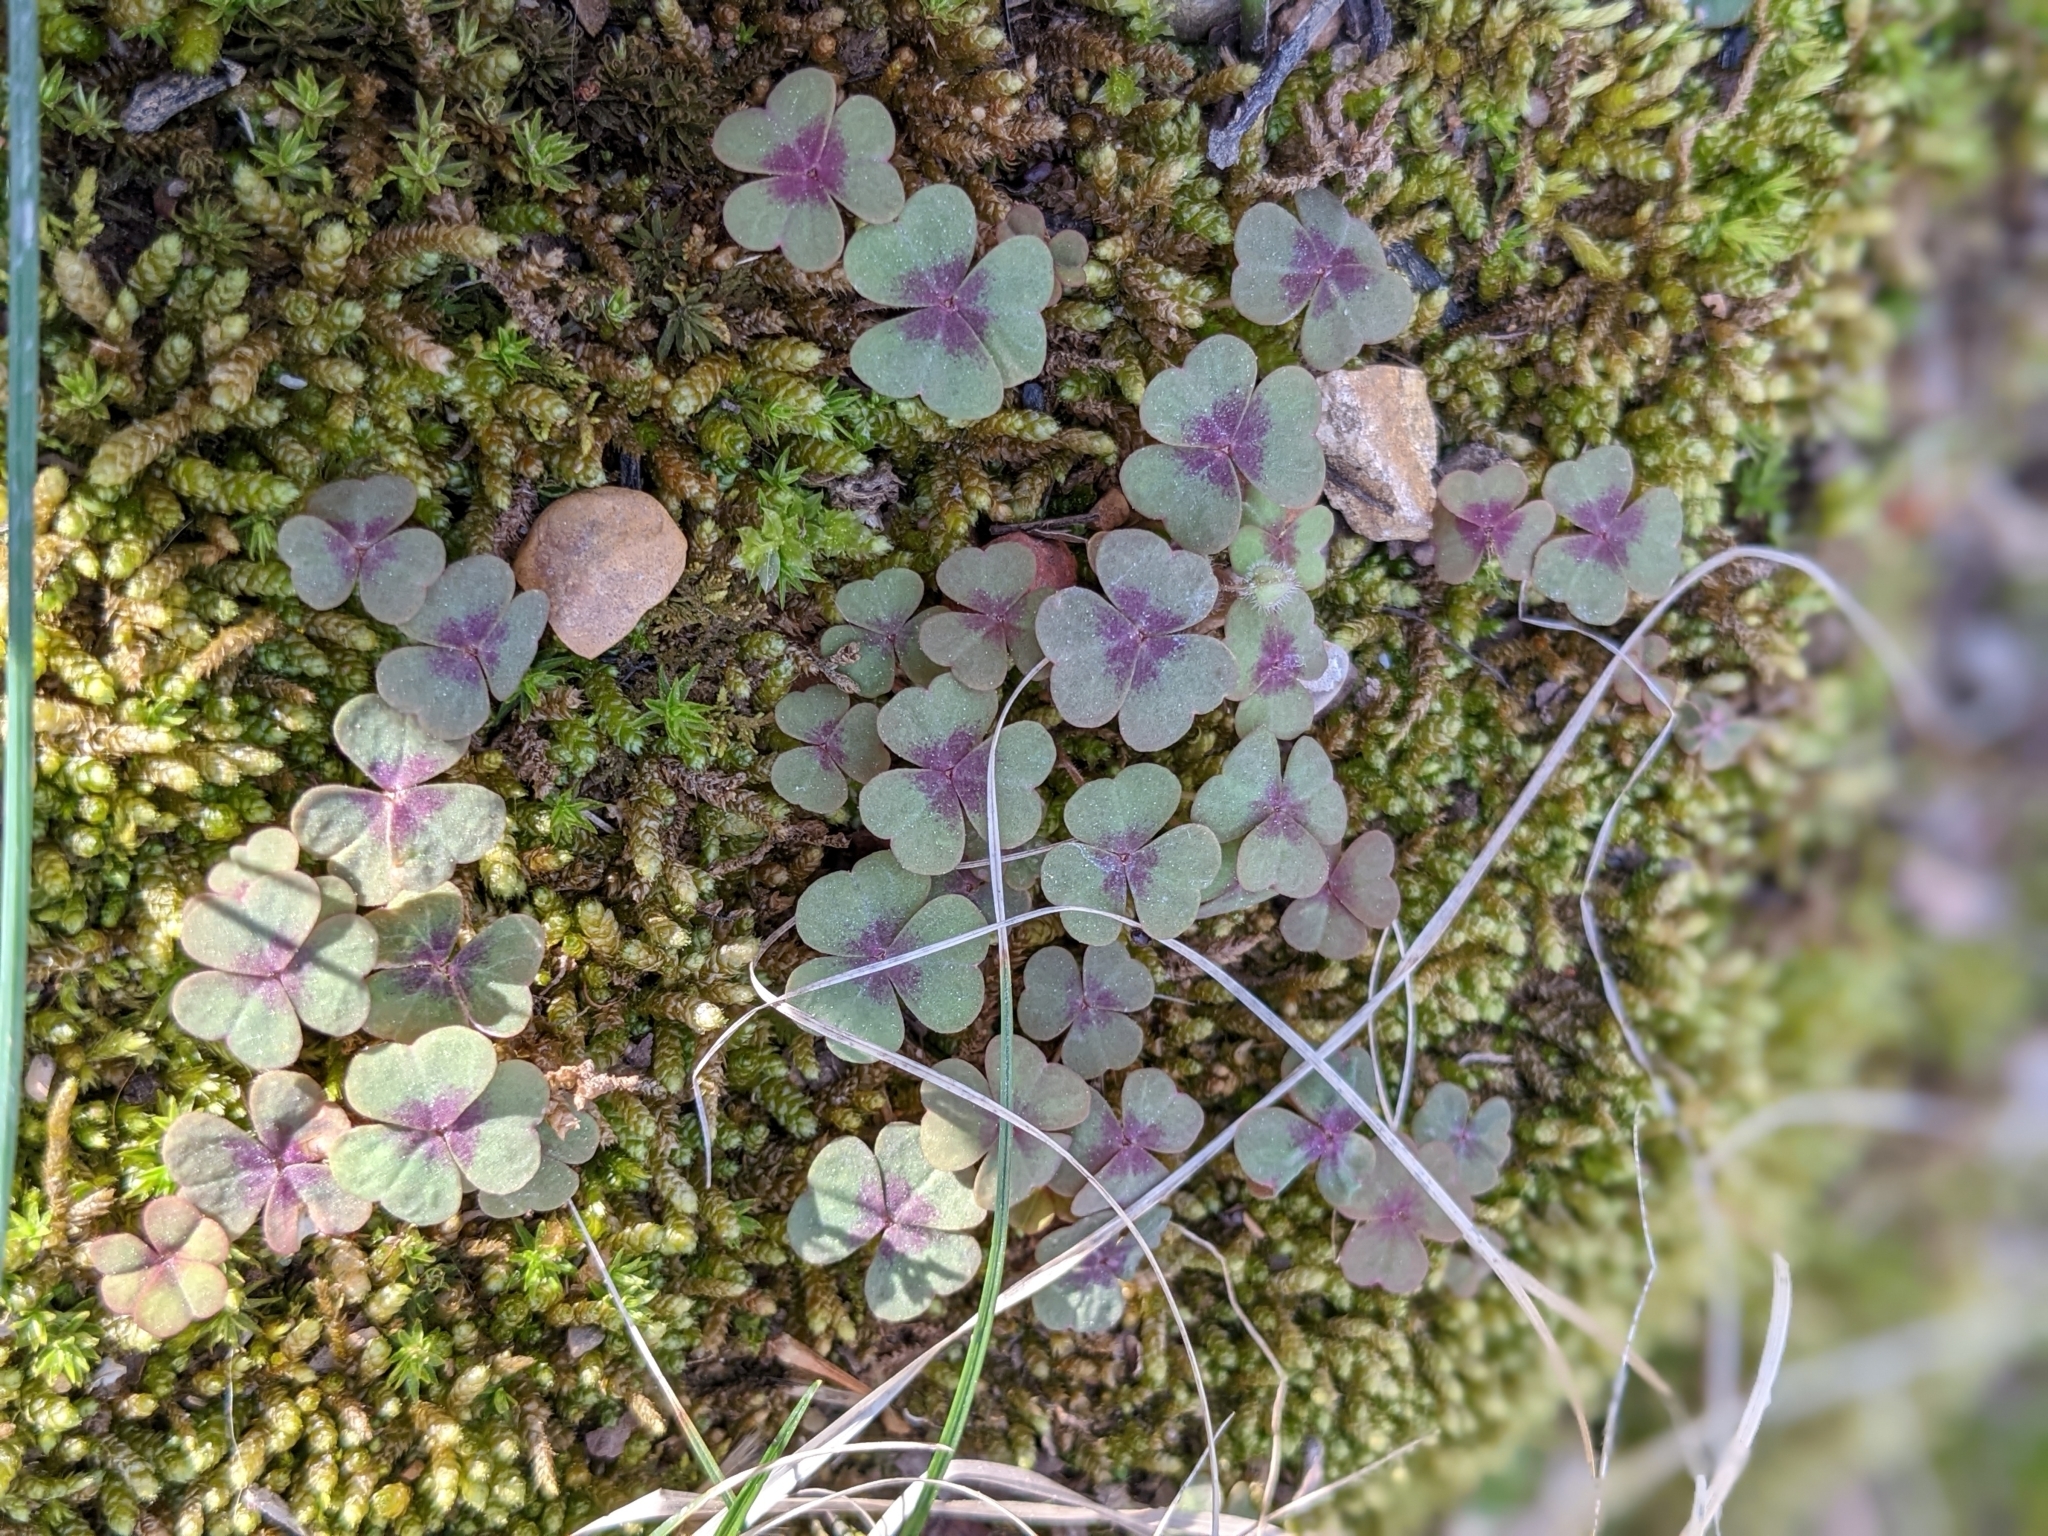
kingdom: Plantae
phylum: Tracheophyta
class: Magnoliopsida
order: Oxalidales
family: Oxalidaceae
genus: Oxalis
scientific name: Oxalis violacea
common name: Violet wood-sorrel
